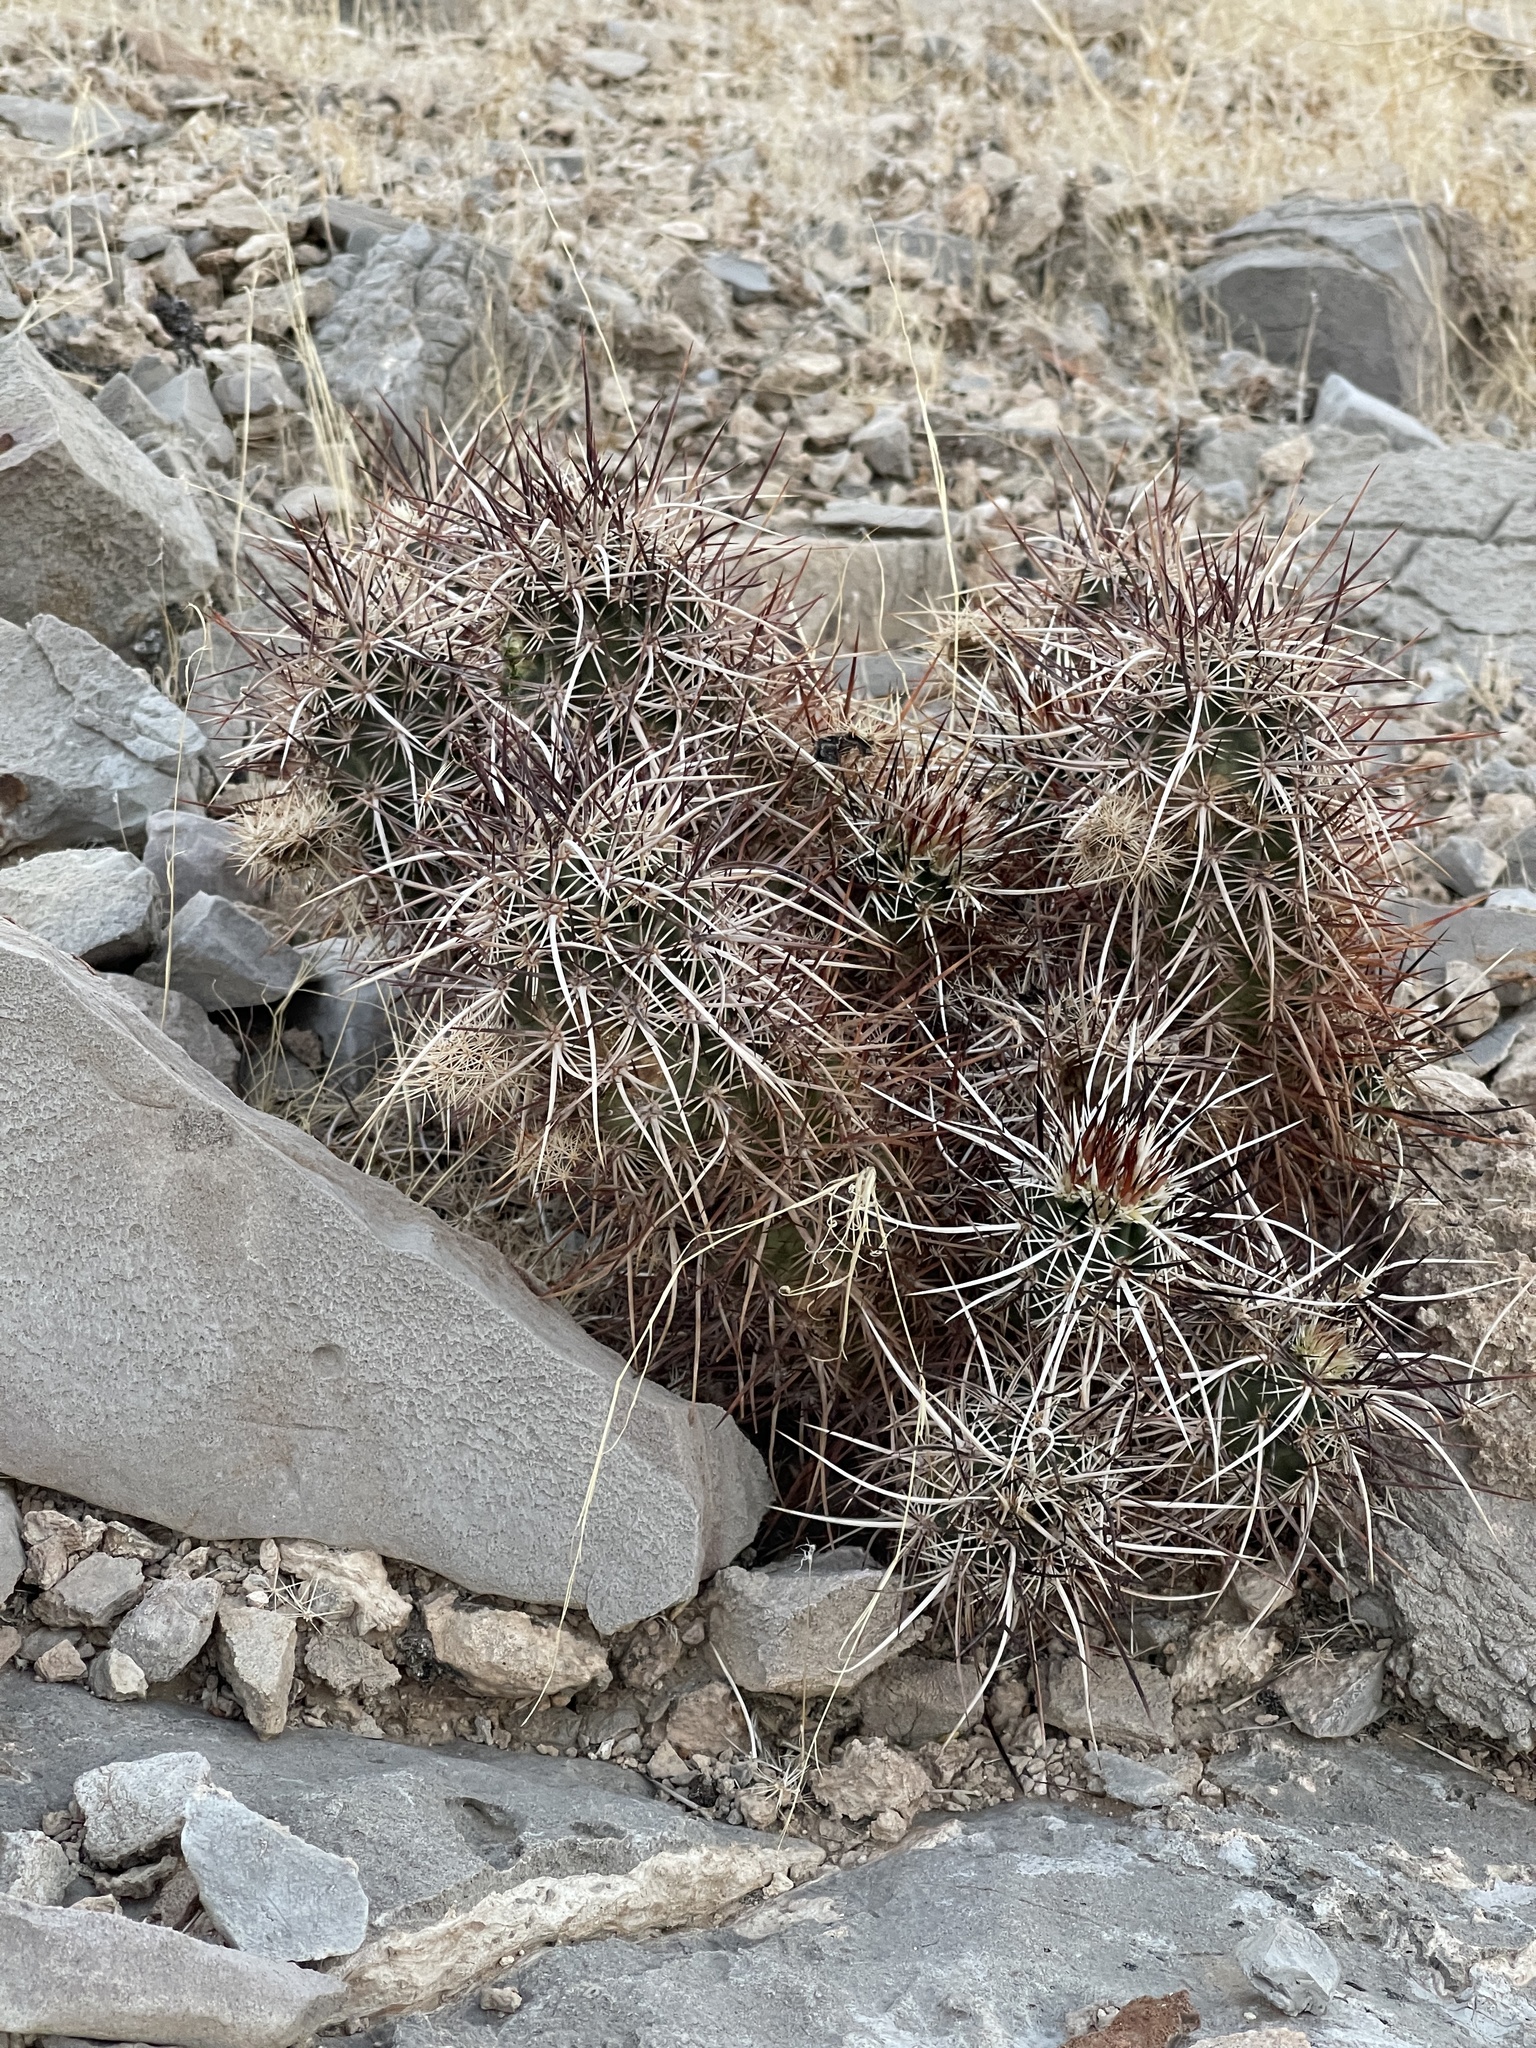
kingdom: Plantae
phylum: Tracheophyta
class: Magnoliopsida
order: Caryophyllales
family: Cactaceae
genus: Echinocereus
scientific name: Echinocereus engelmannii
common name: Engelmann's hedgehog cactus
